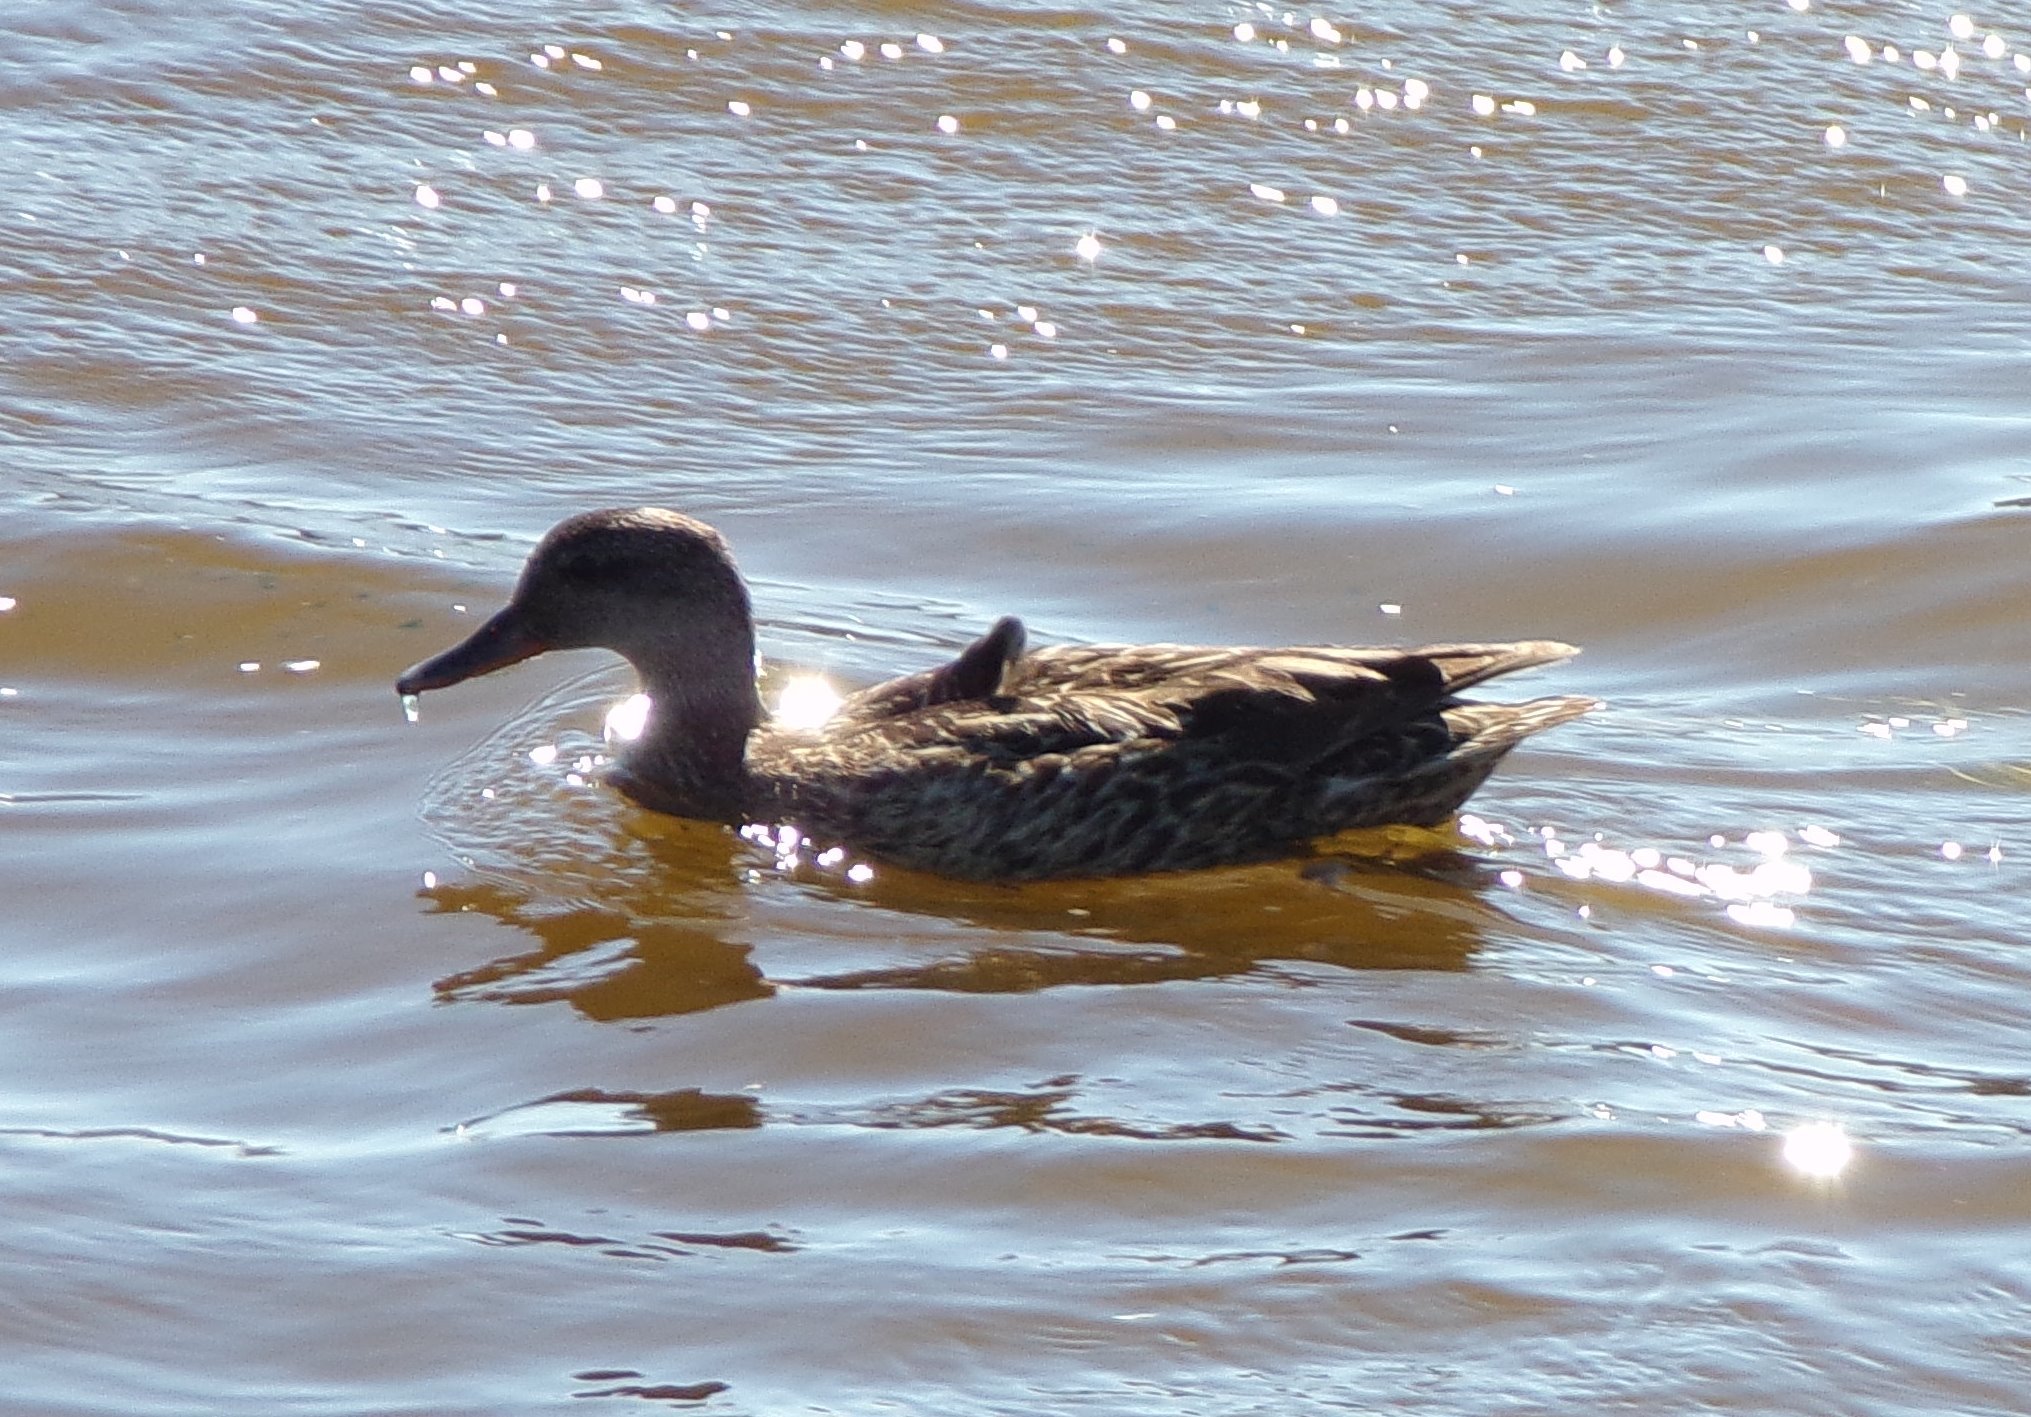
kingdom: Animalia
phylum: Chordata
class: Aves
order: Anseriformes
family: Anatidae
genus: Mareca
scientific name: Mareca strepera
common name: Gadwall
